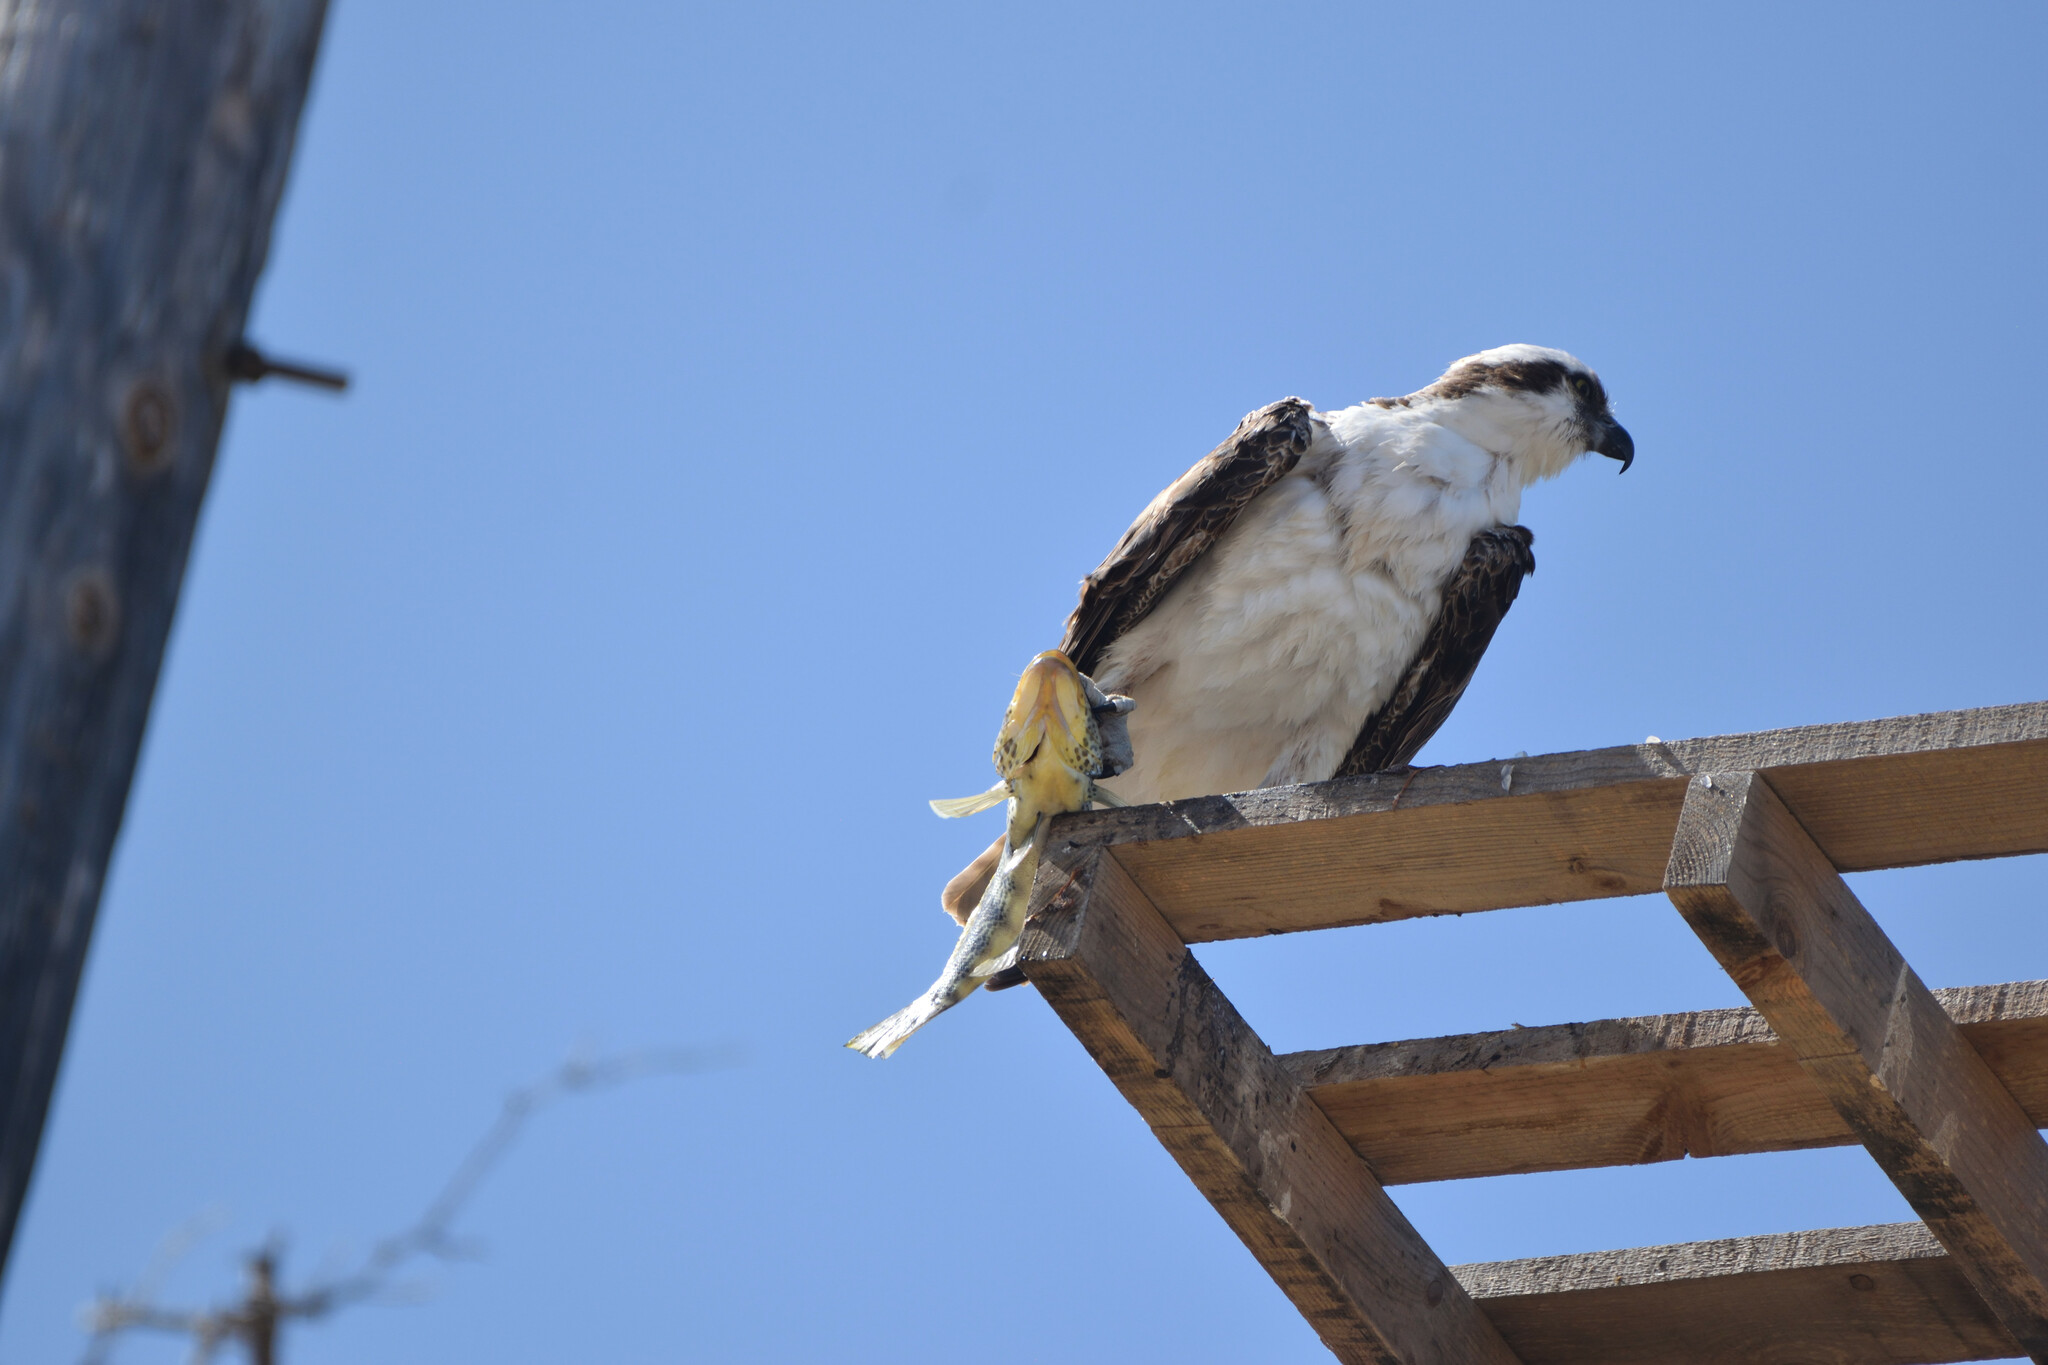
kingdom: Animalia
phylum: Chordata
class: Aves
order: Accipitriformes
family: Pandionidae
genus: Pandion
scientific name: Pandion haliaetus
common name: Osprey
